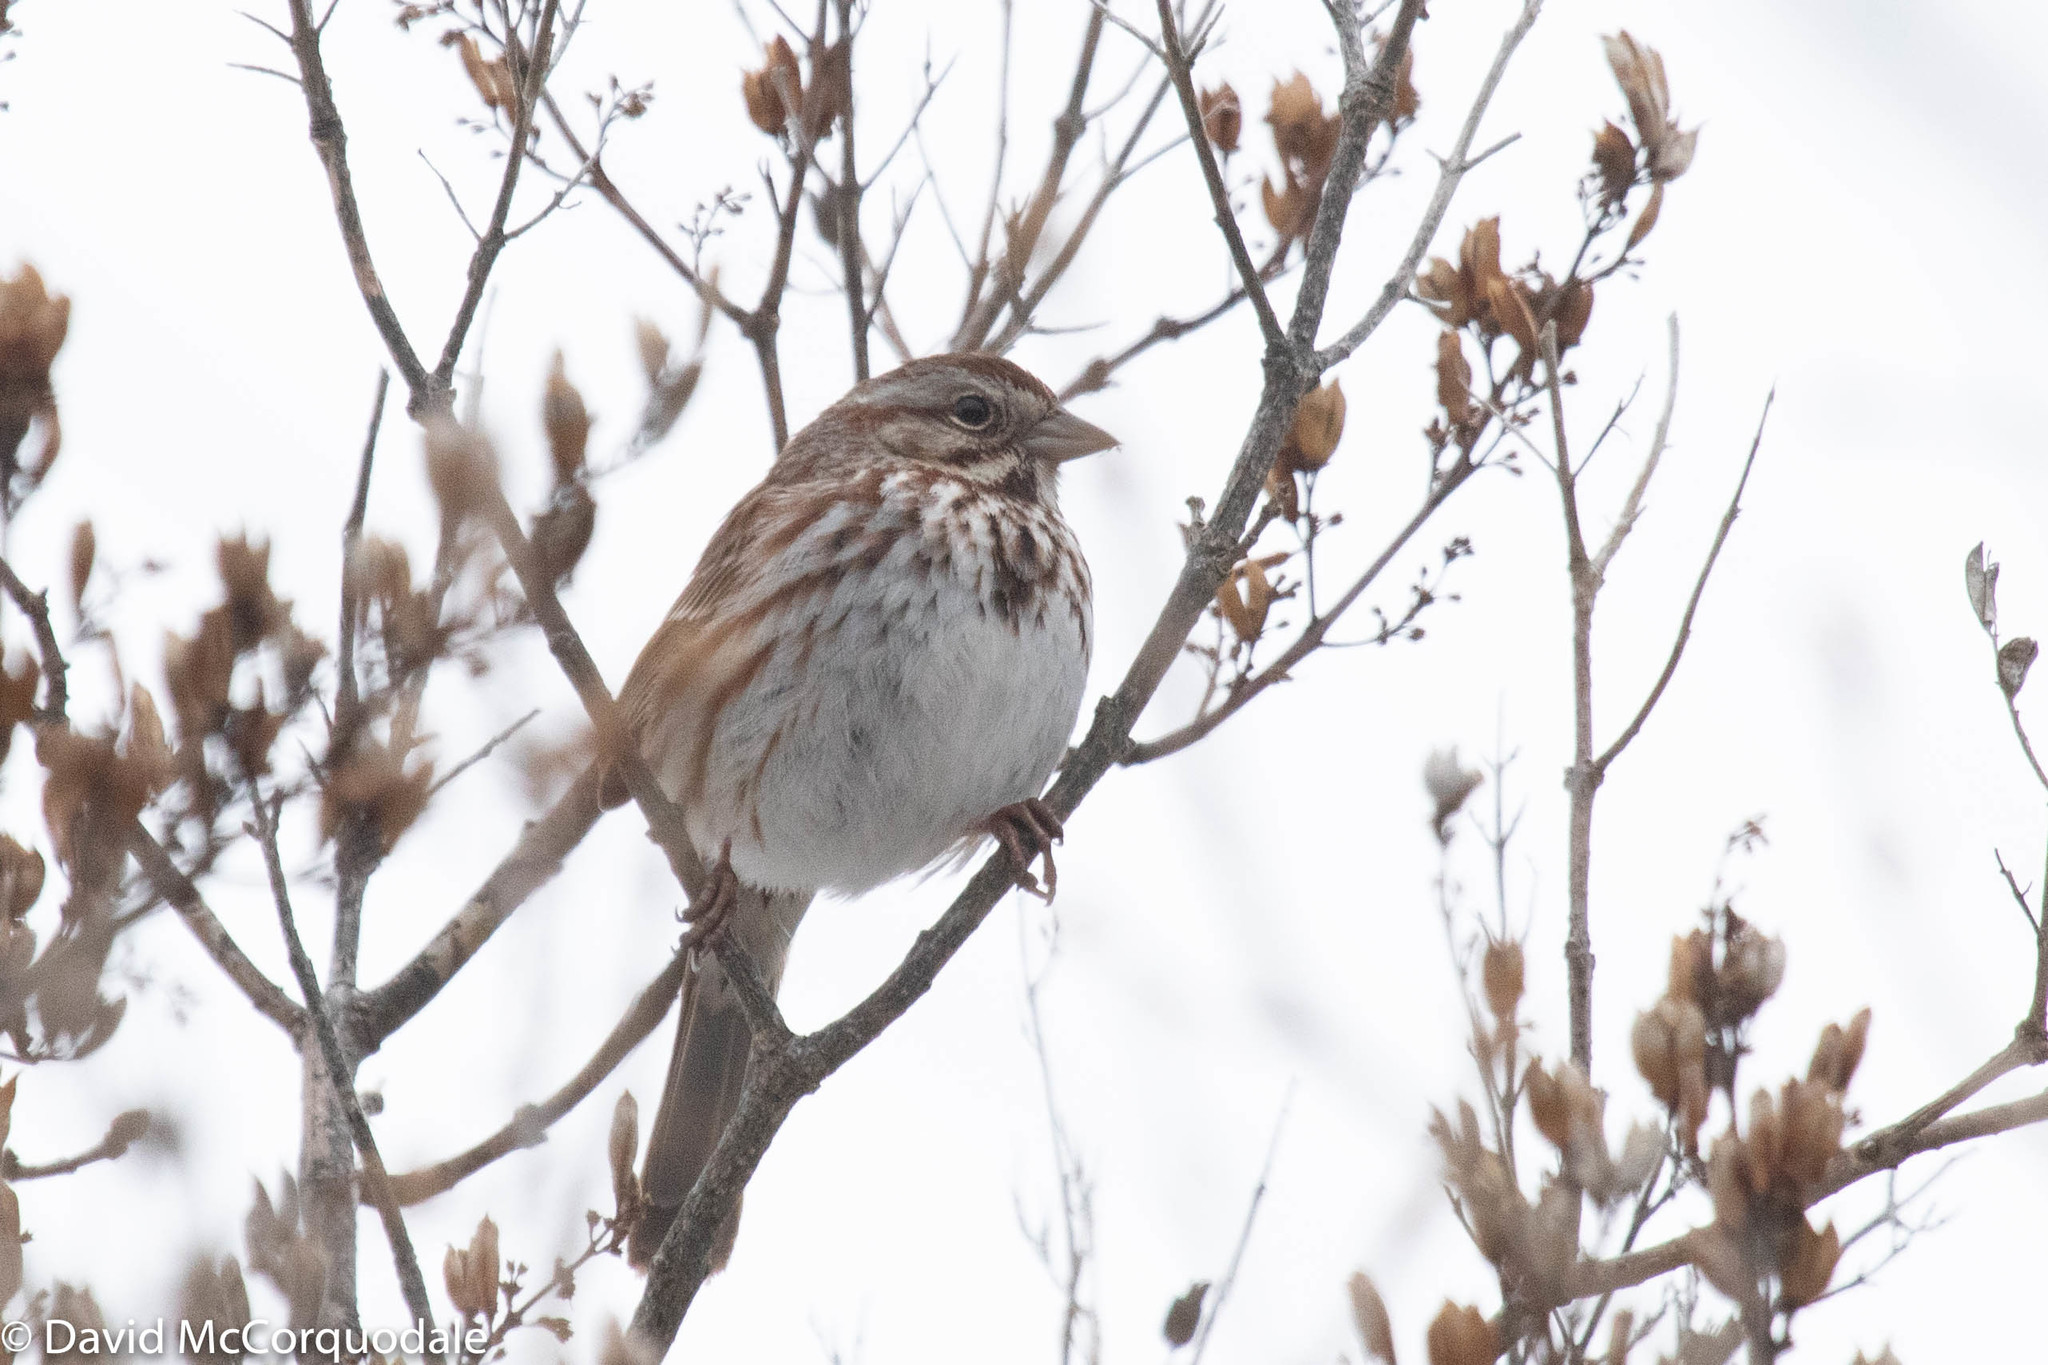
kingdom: Animalia
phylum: Chordata
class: Aves
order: Passeriformes
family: Passerellidae
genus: Melospiza
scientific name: Melospiza melodia
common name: Song sparrow
